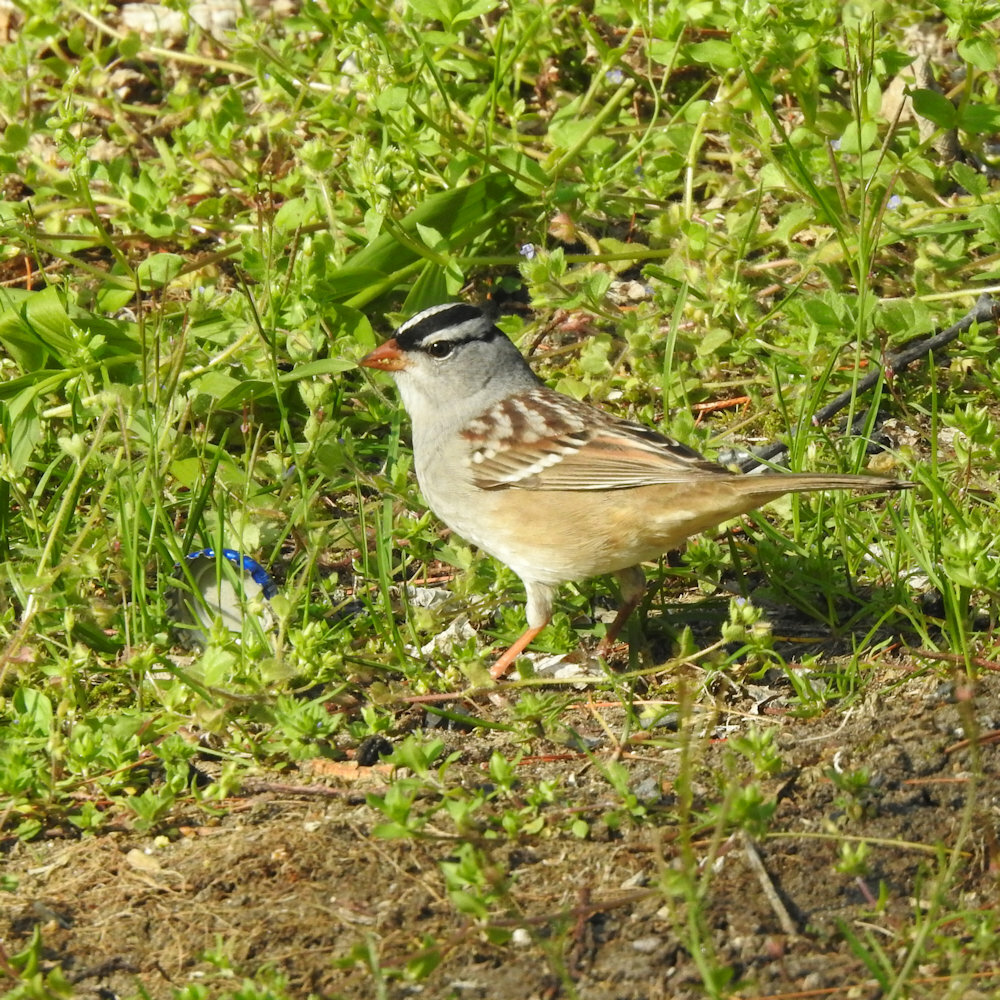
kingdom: Animalia
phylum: Chordata
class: Aves
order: Passeriformes
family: Passerellidae
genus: Zonotrichia
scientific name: Zonotrichia leucophrys
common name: White-crowned sparrow
